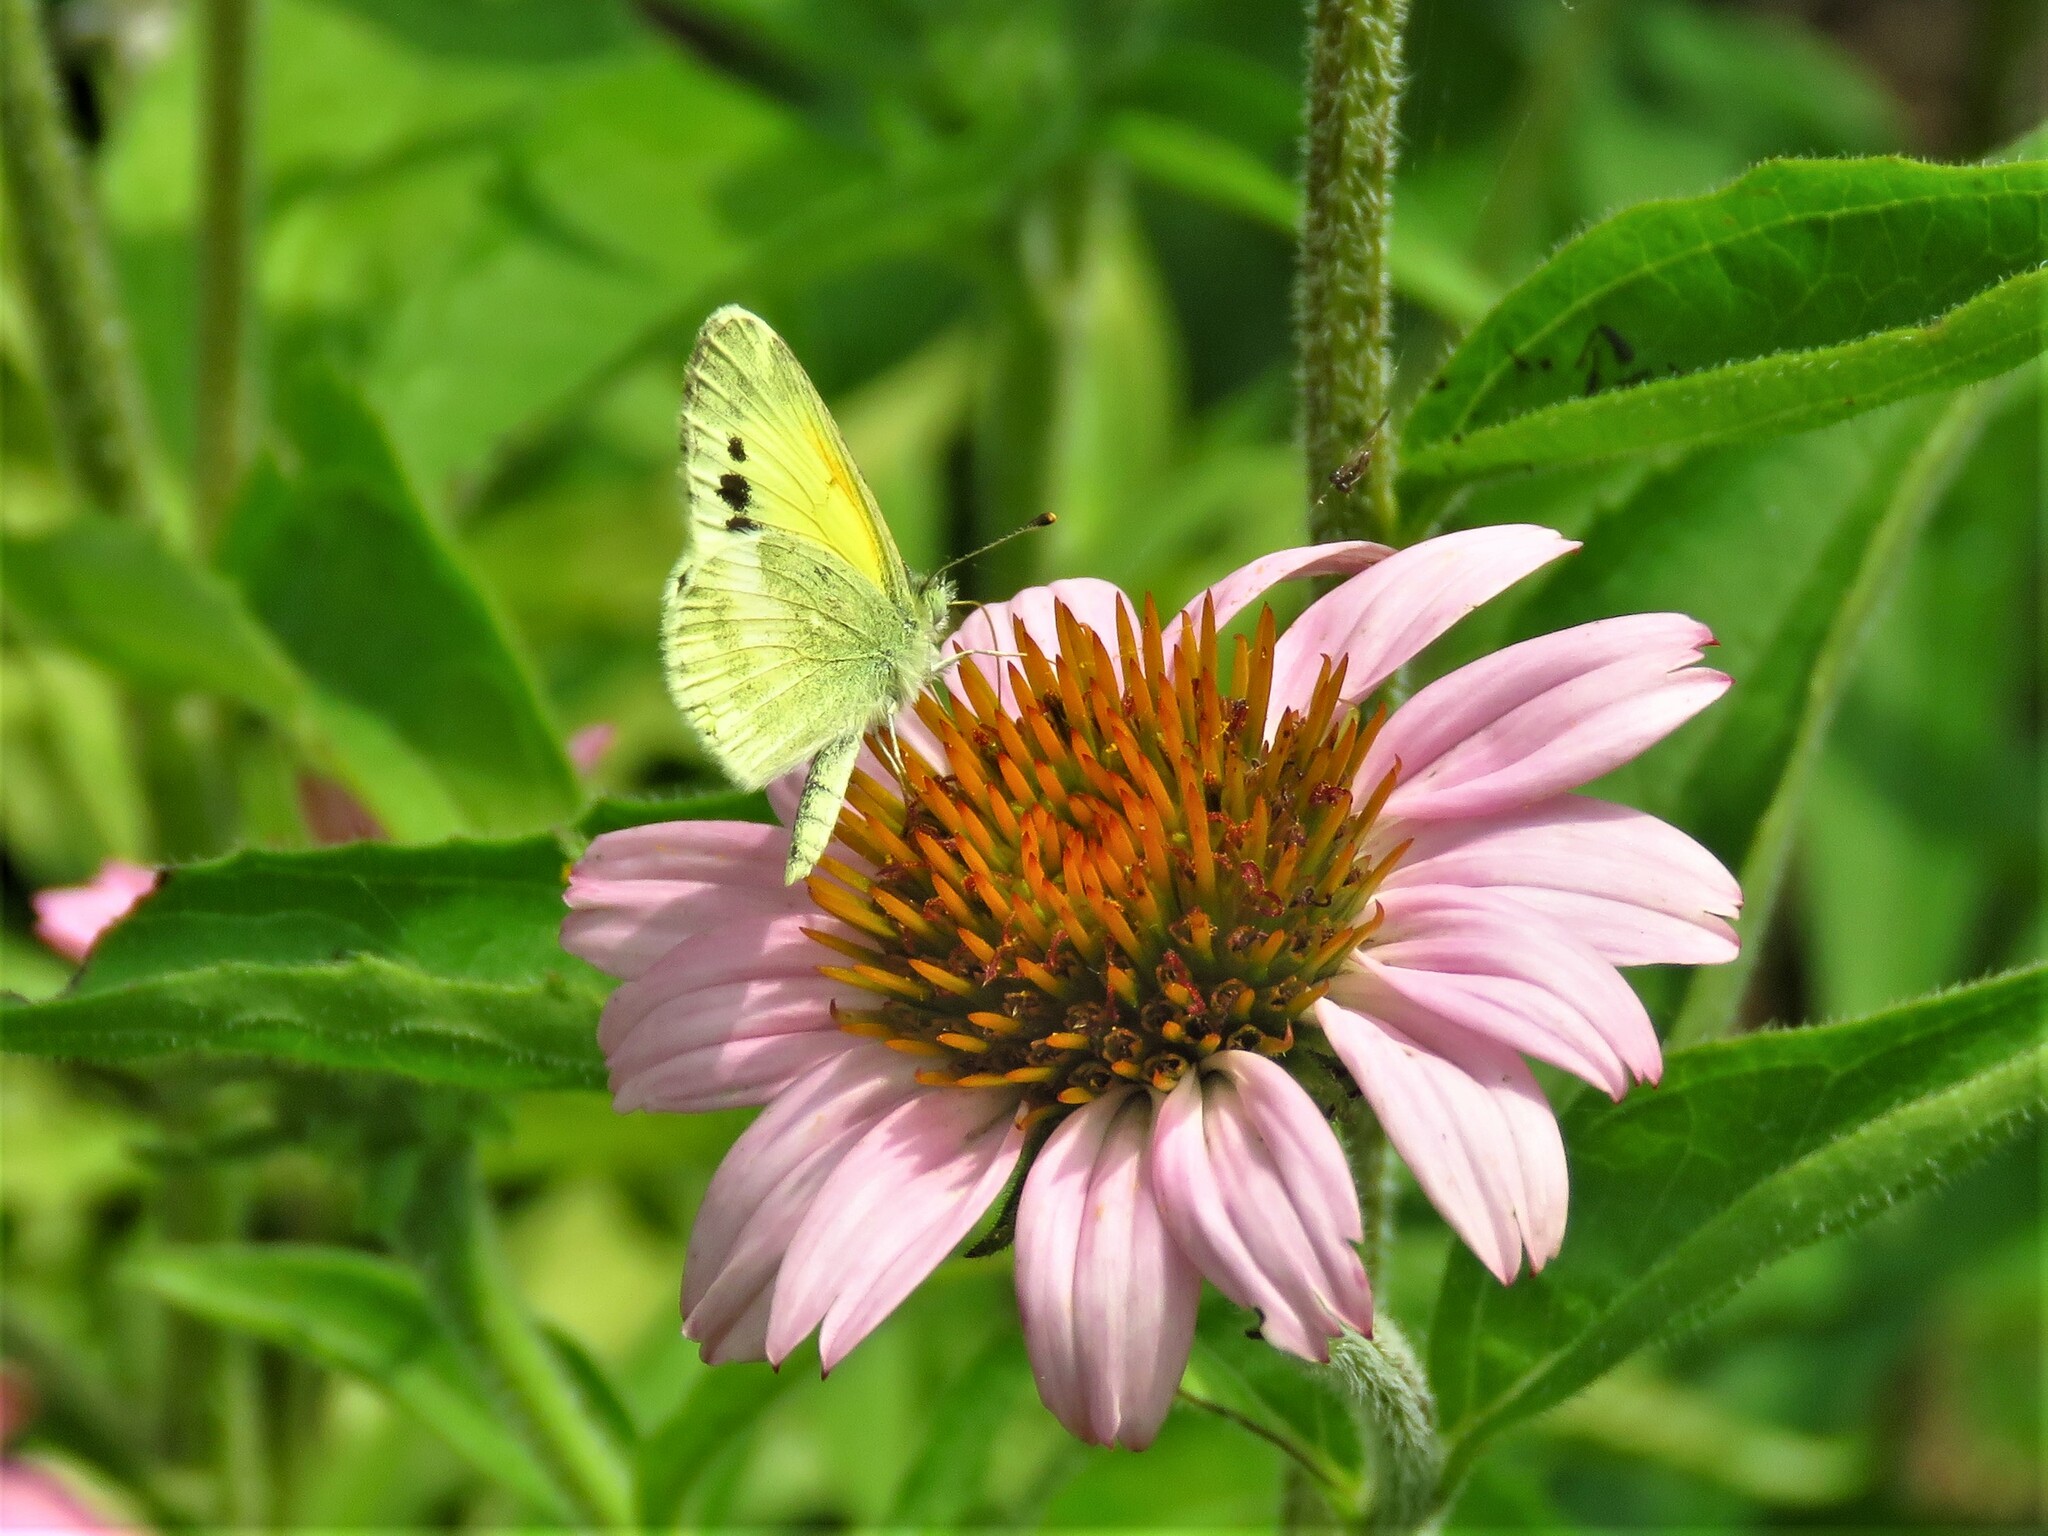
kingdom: Animalia
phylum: Arthropoda
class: Insecta
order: Lepidoptera
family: Pieridae
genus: Nathalis
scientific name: Nathalis iole
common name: Dainty sulphur
